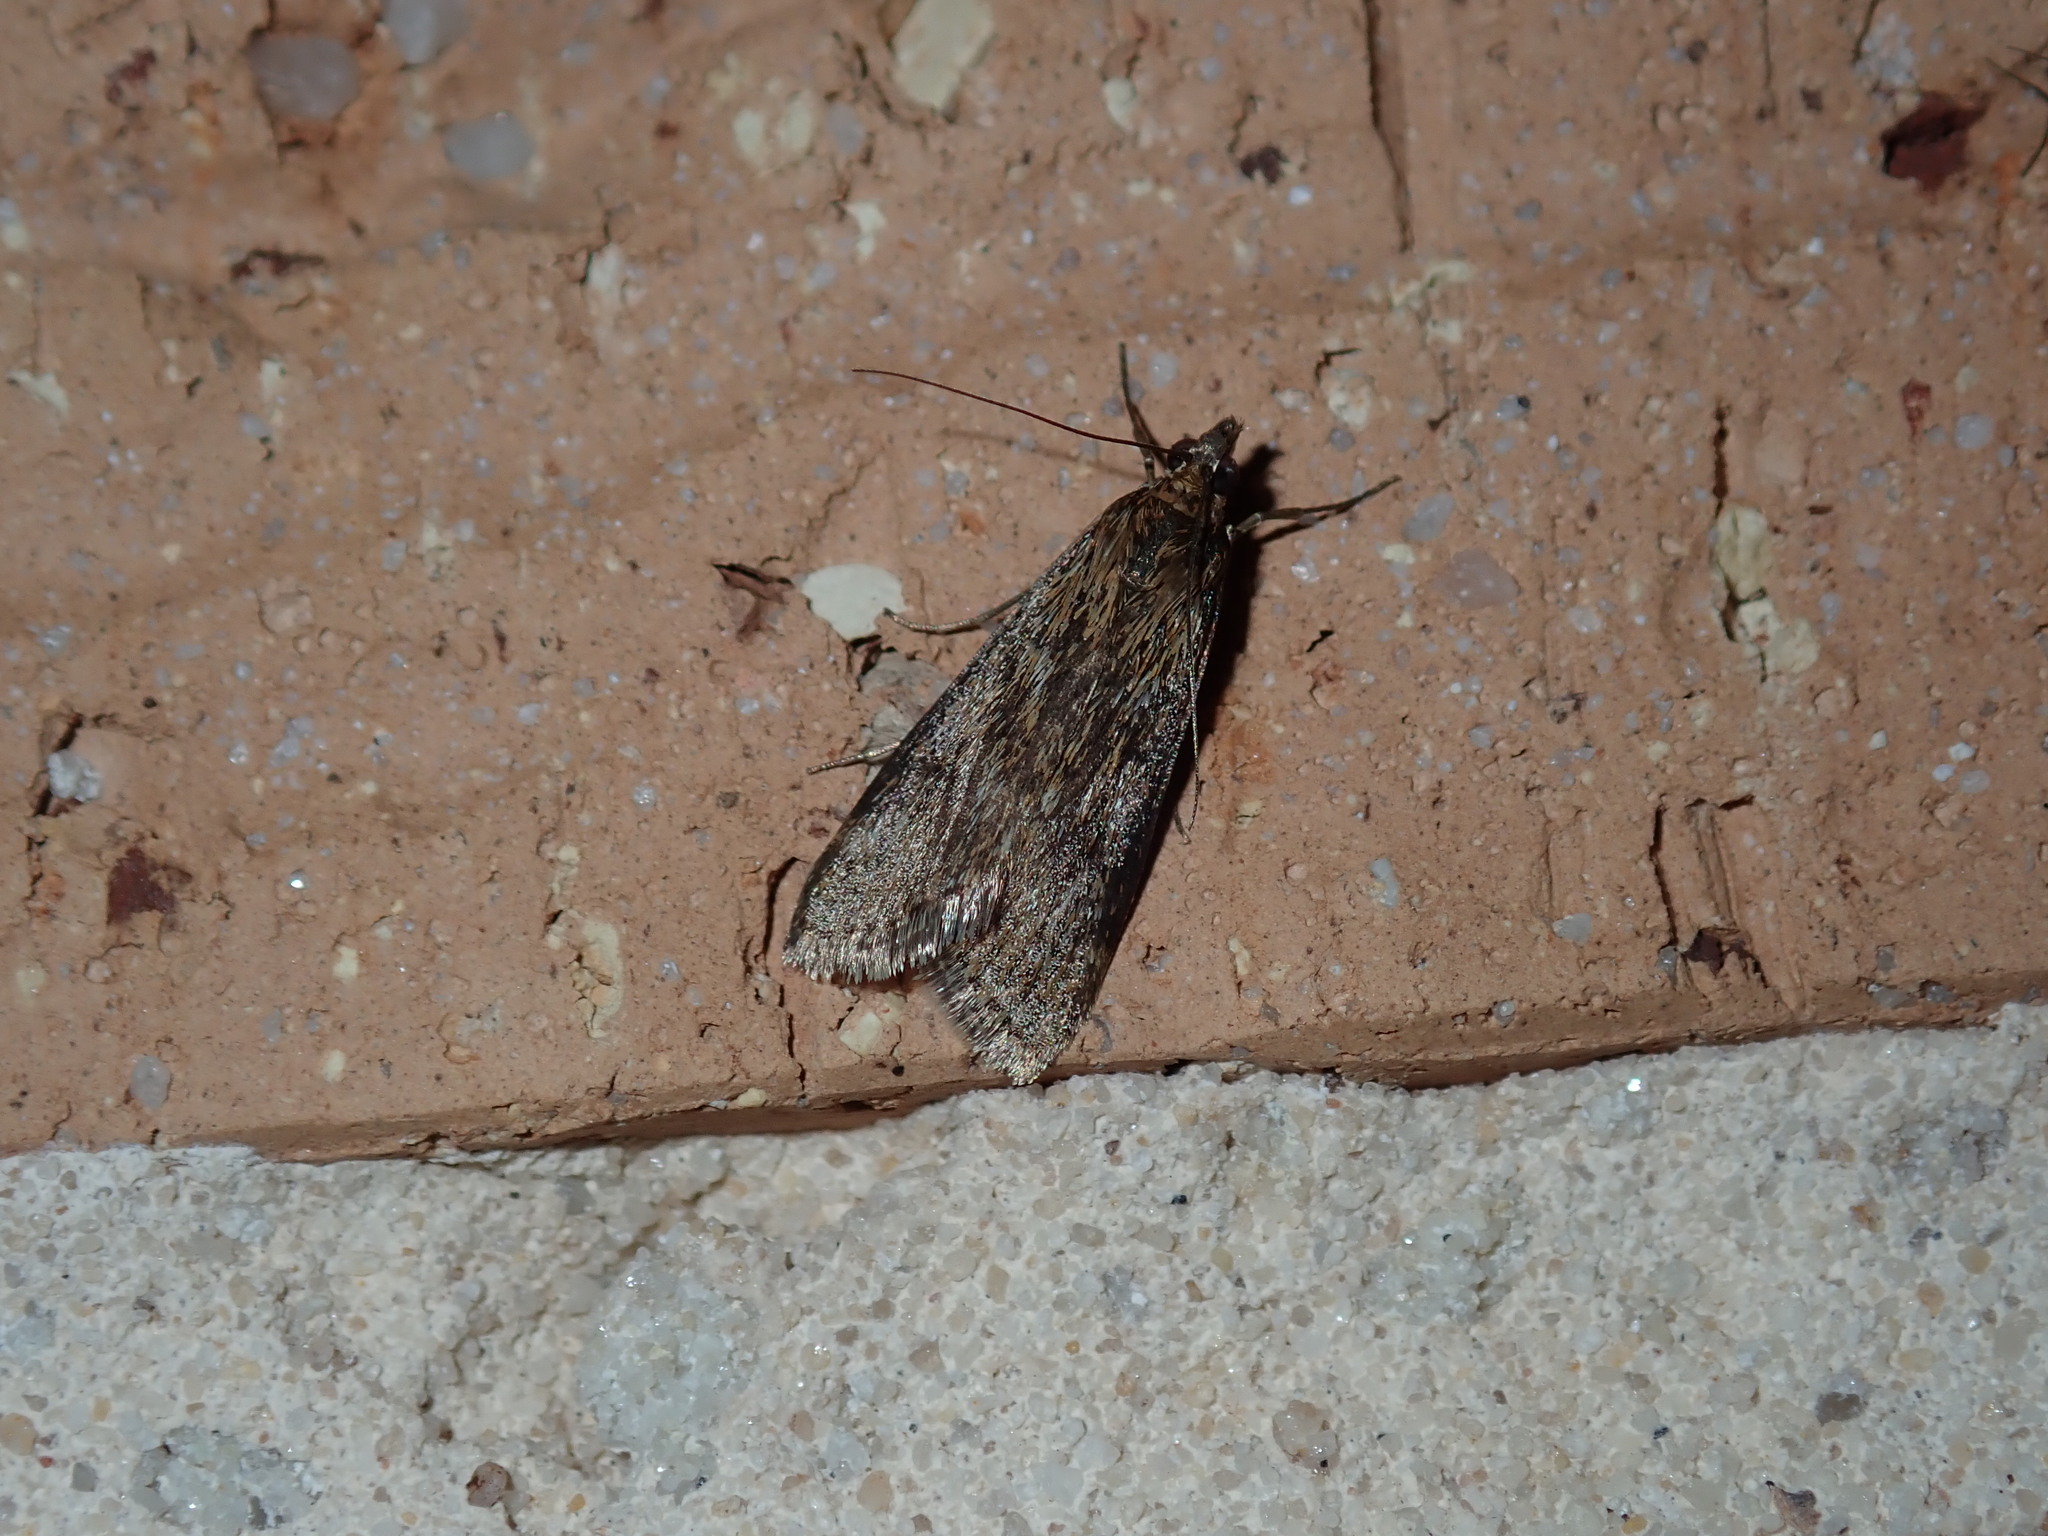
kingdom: Animalia
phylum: Arthropoda
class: Insecta
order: Lepidoptera
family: Crambidae
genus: Achyra
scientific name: Achyra affinitalis
